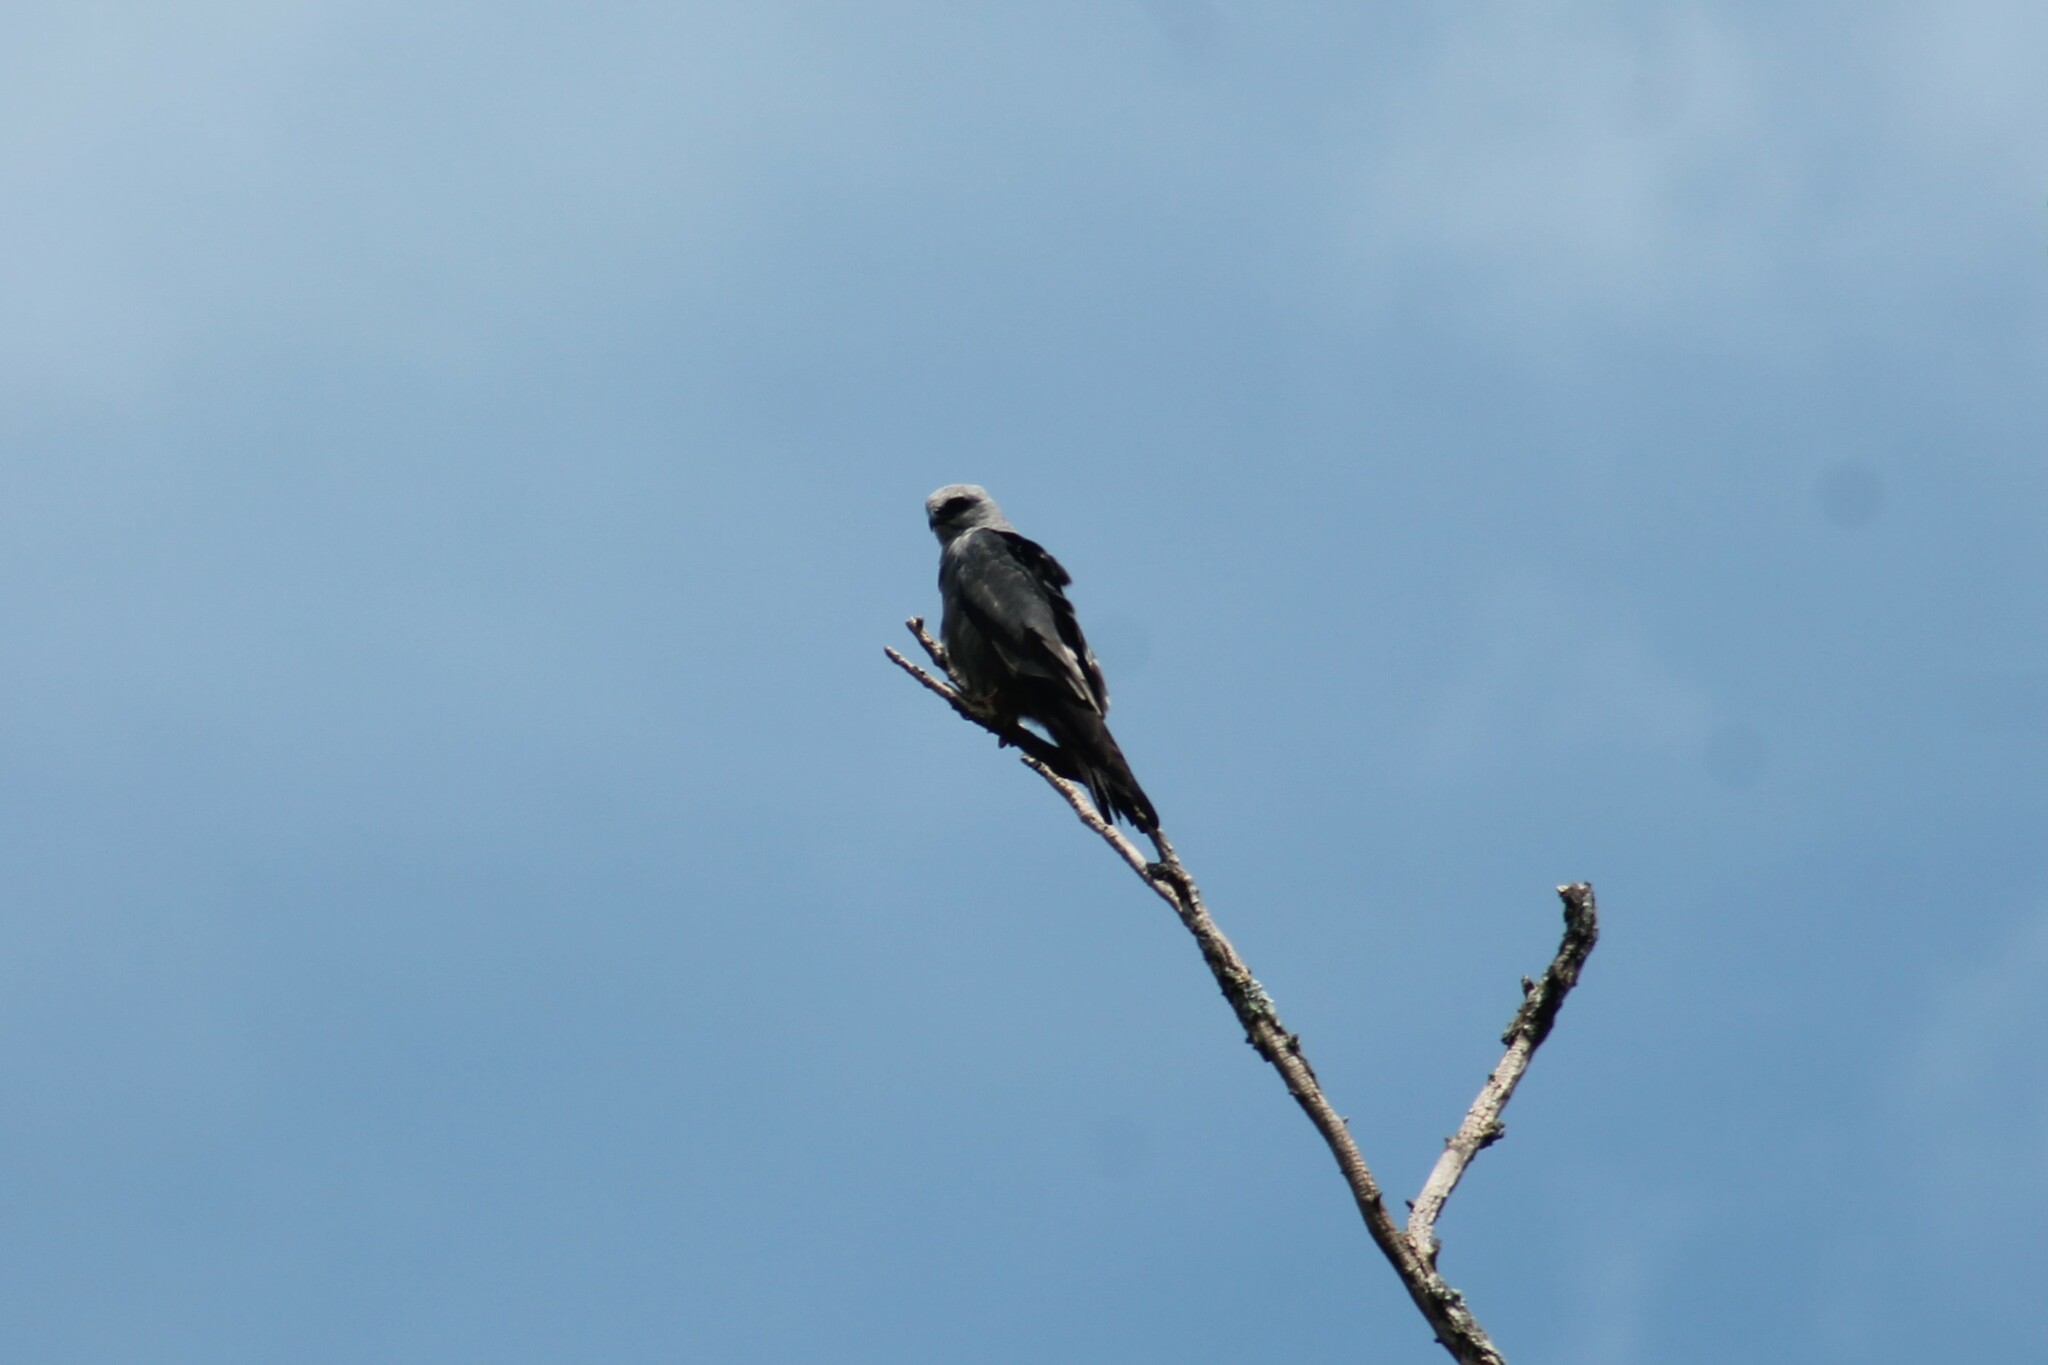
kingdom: Animalia
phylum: Chordata
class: Aves
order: Accipitriformes
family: Accipitridae
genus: Ictinia
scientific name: Ictinia mississippiensis
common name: Mississippi kite
